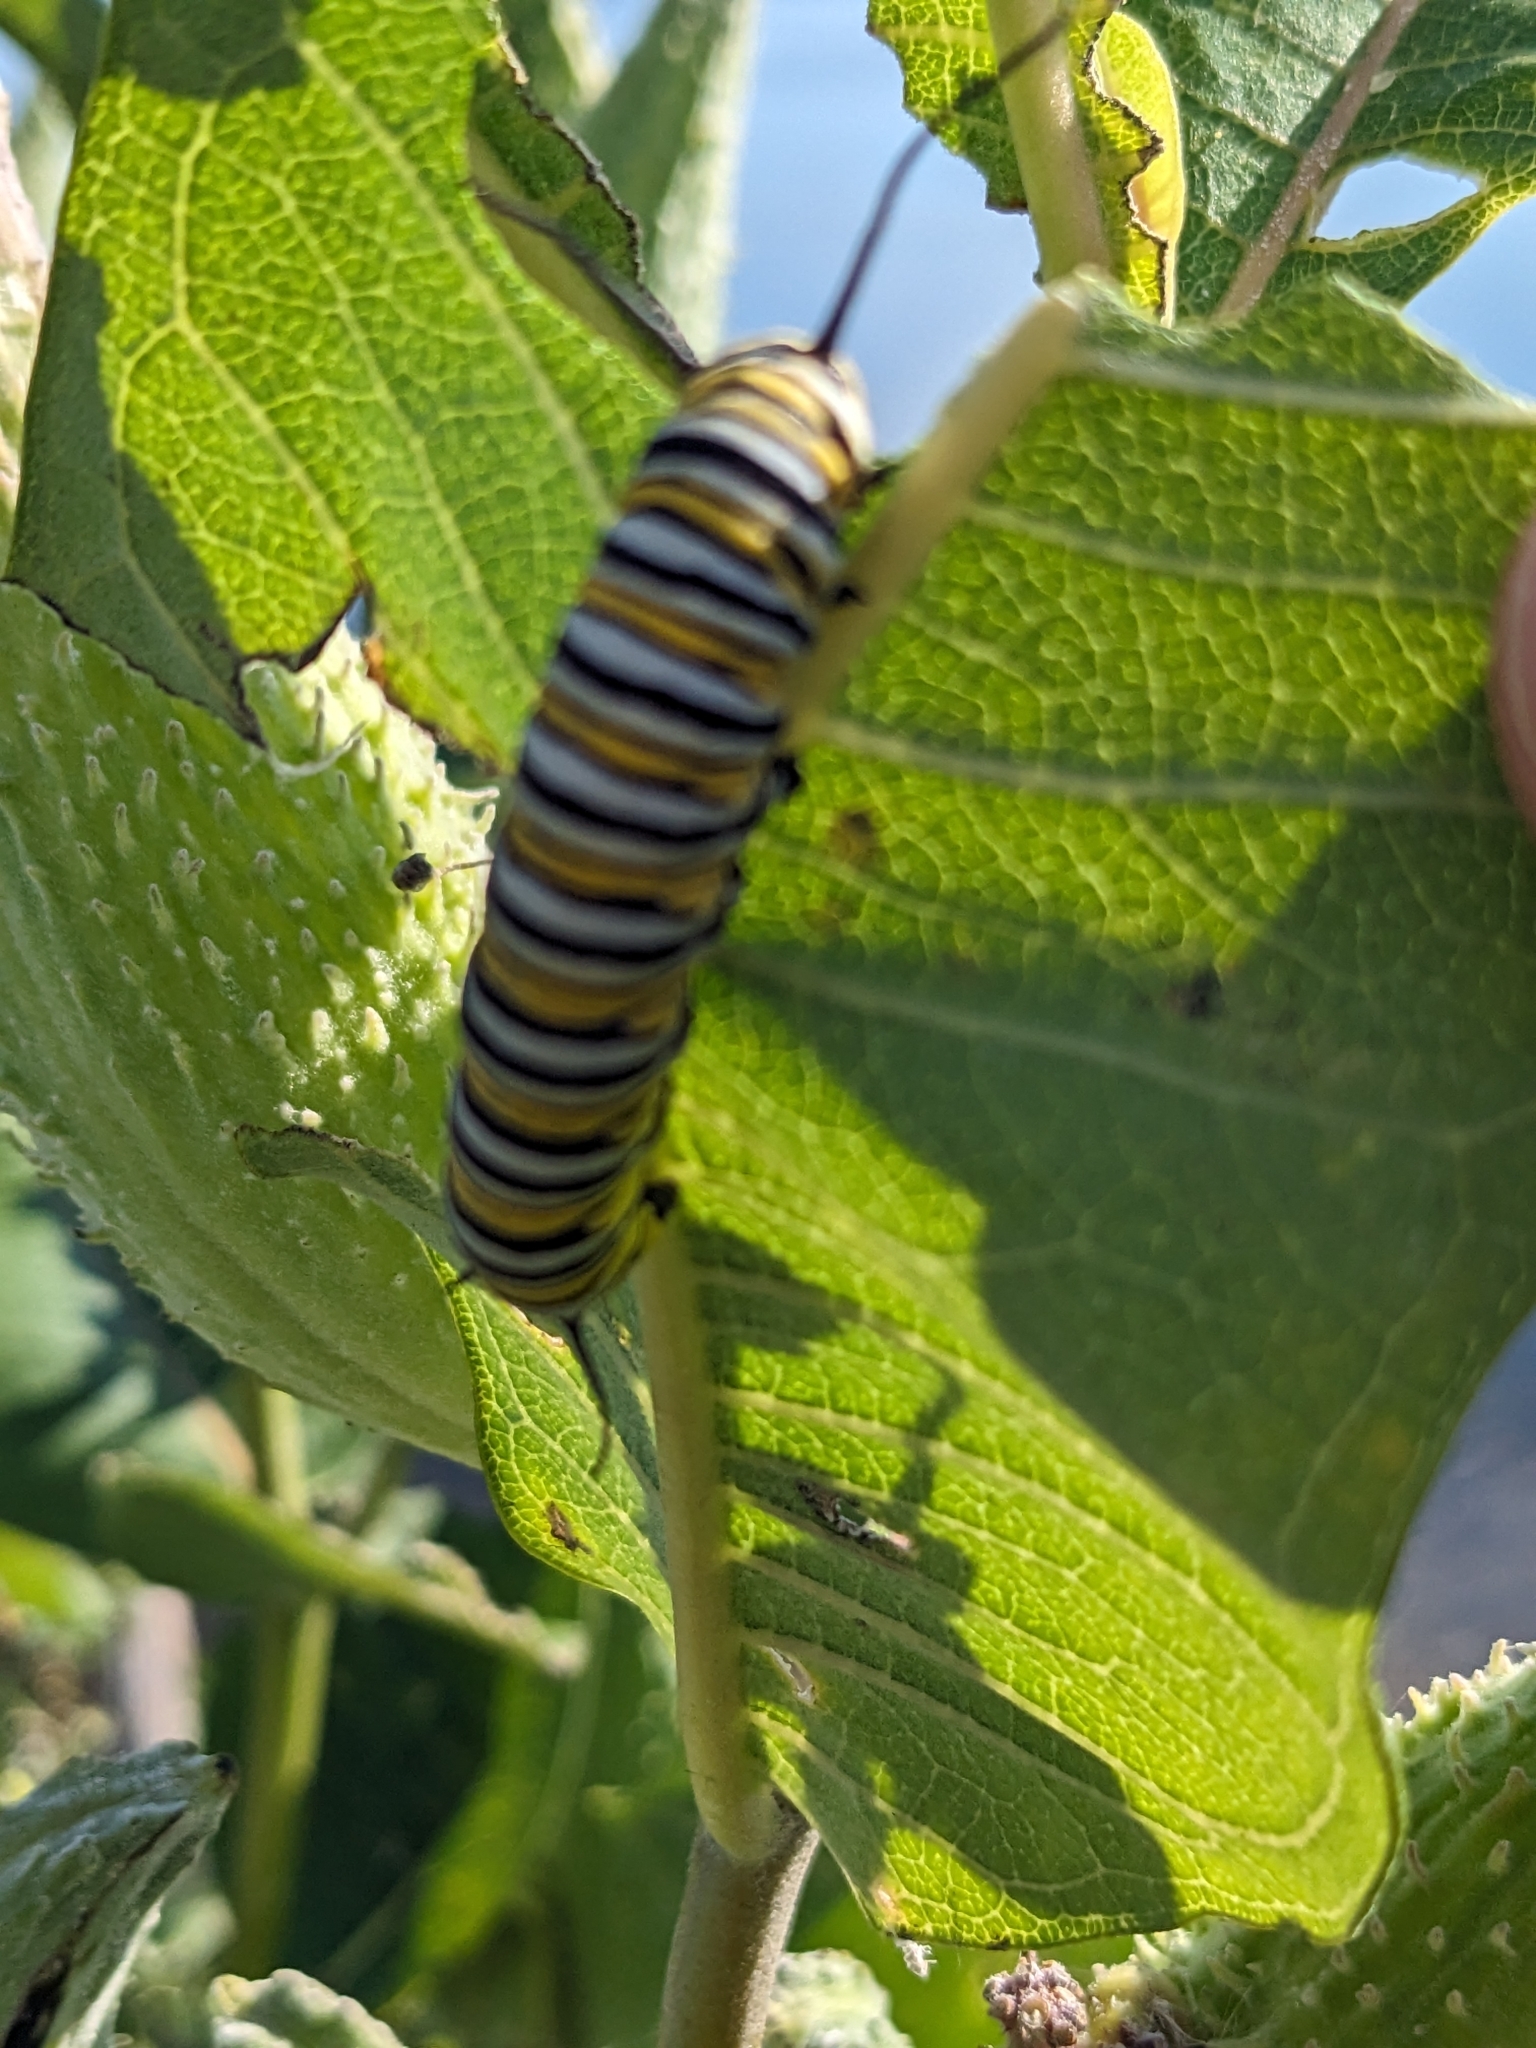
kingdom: Animalia
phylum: Arthropoda
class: Insecta
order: Lepidoptera
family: Nymphalidae
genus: Danaus
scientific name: Danaus plexippus
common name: Monarch
